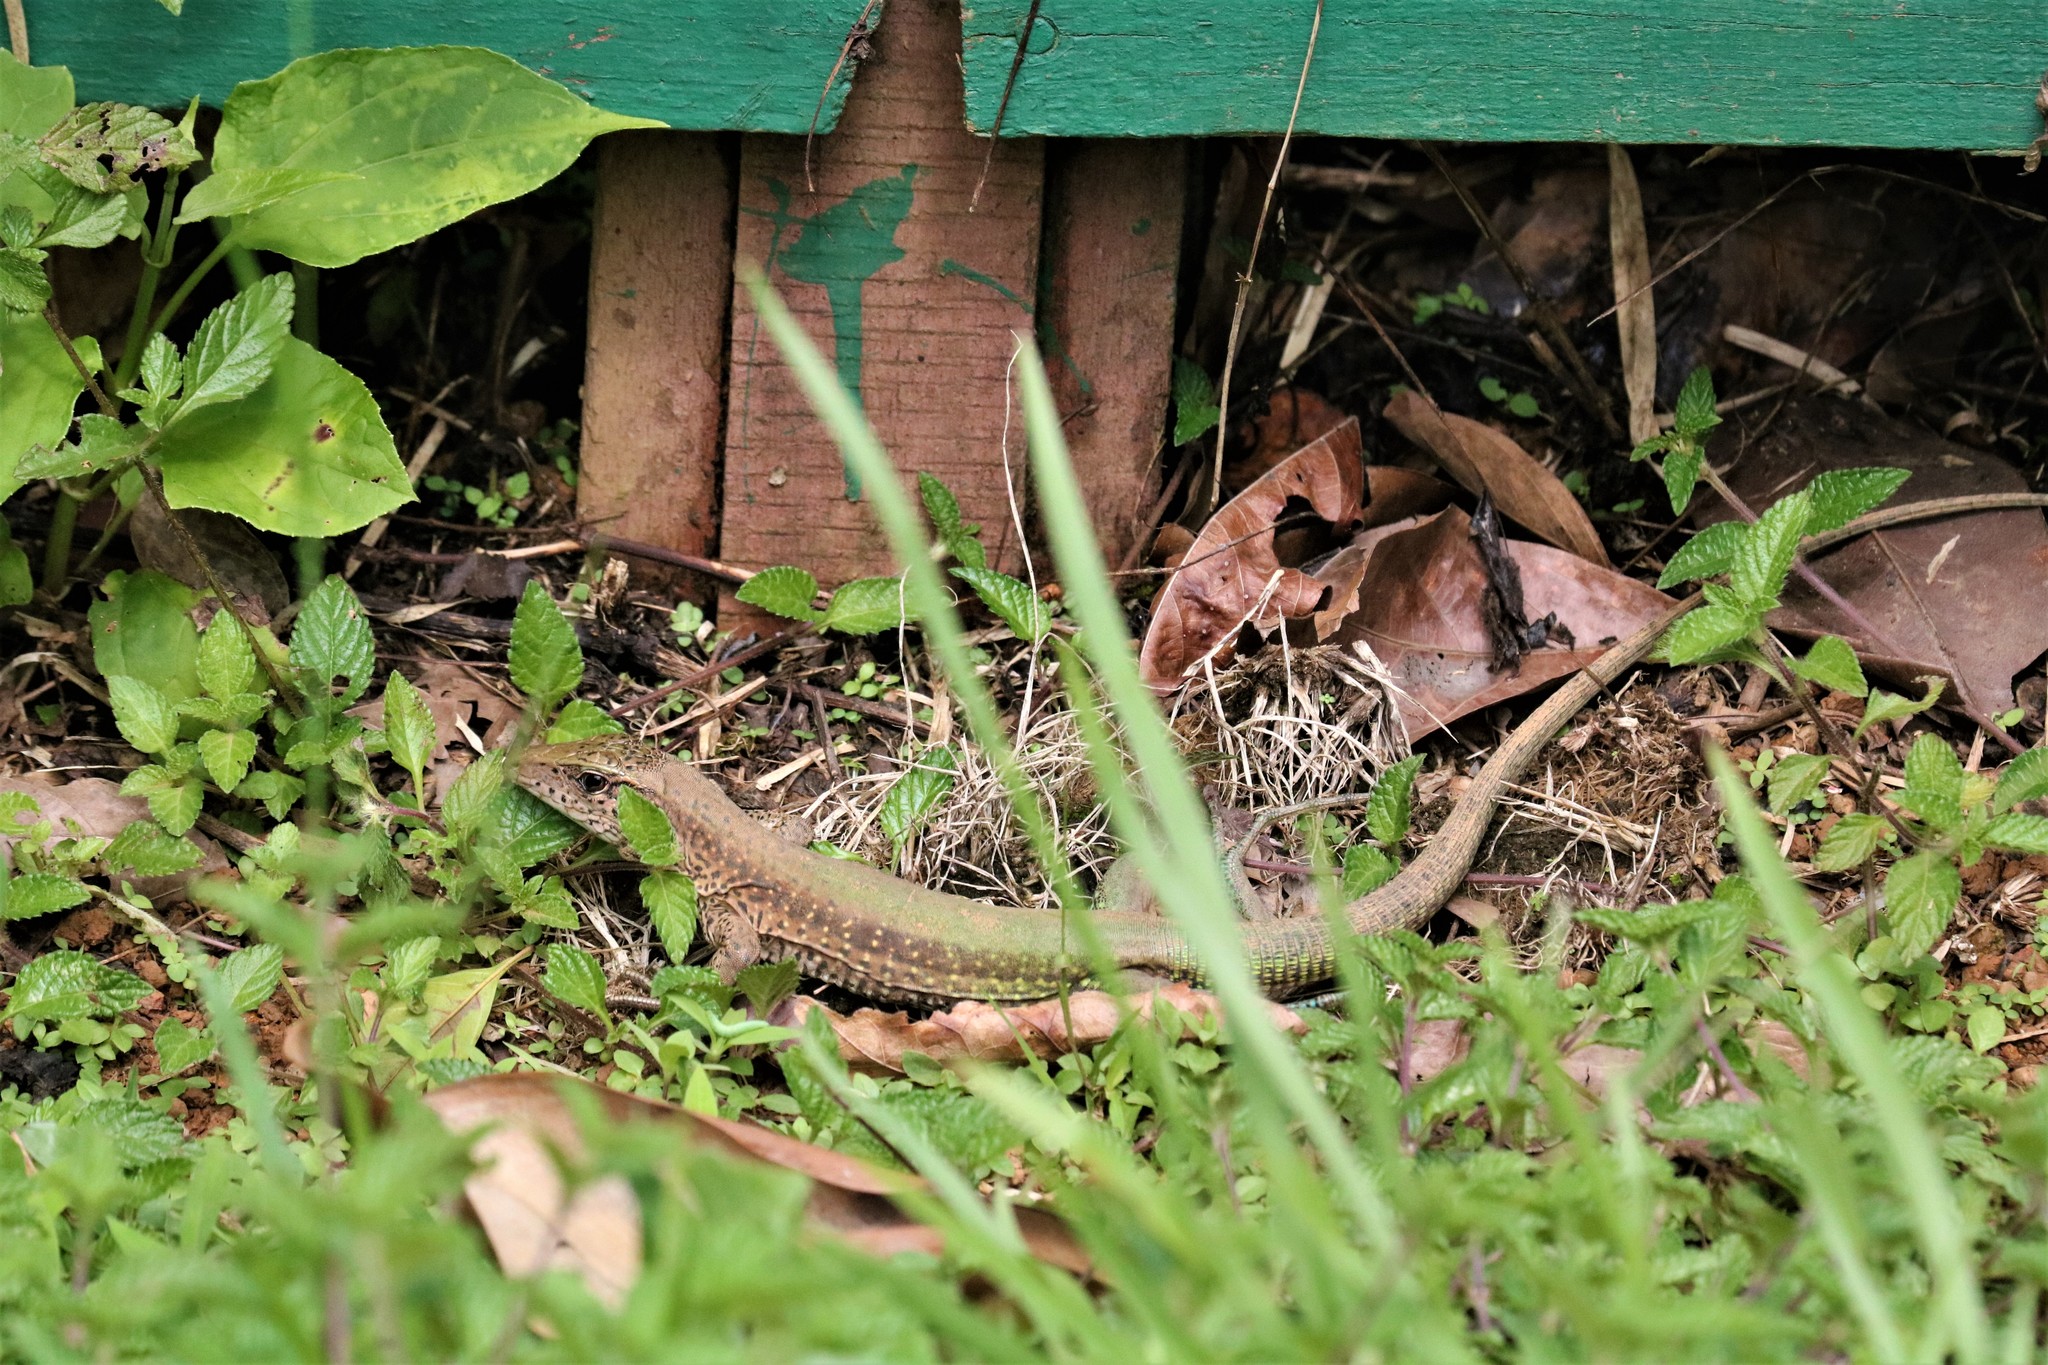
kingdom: Animalia
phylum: Chordata
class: Squamata
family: Teiidae
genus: Ameiva
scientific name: Ameiva ameiva
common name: Giant ameiva
